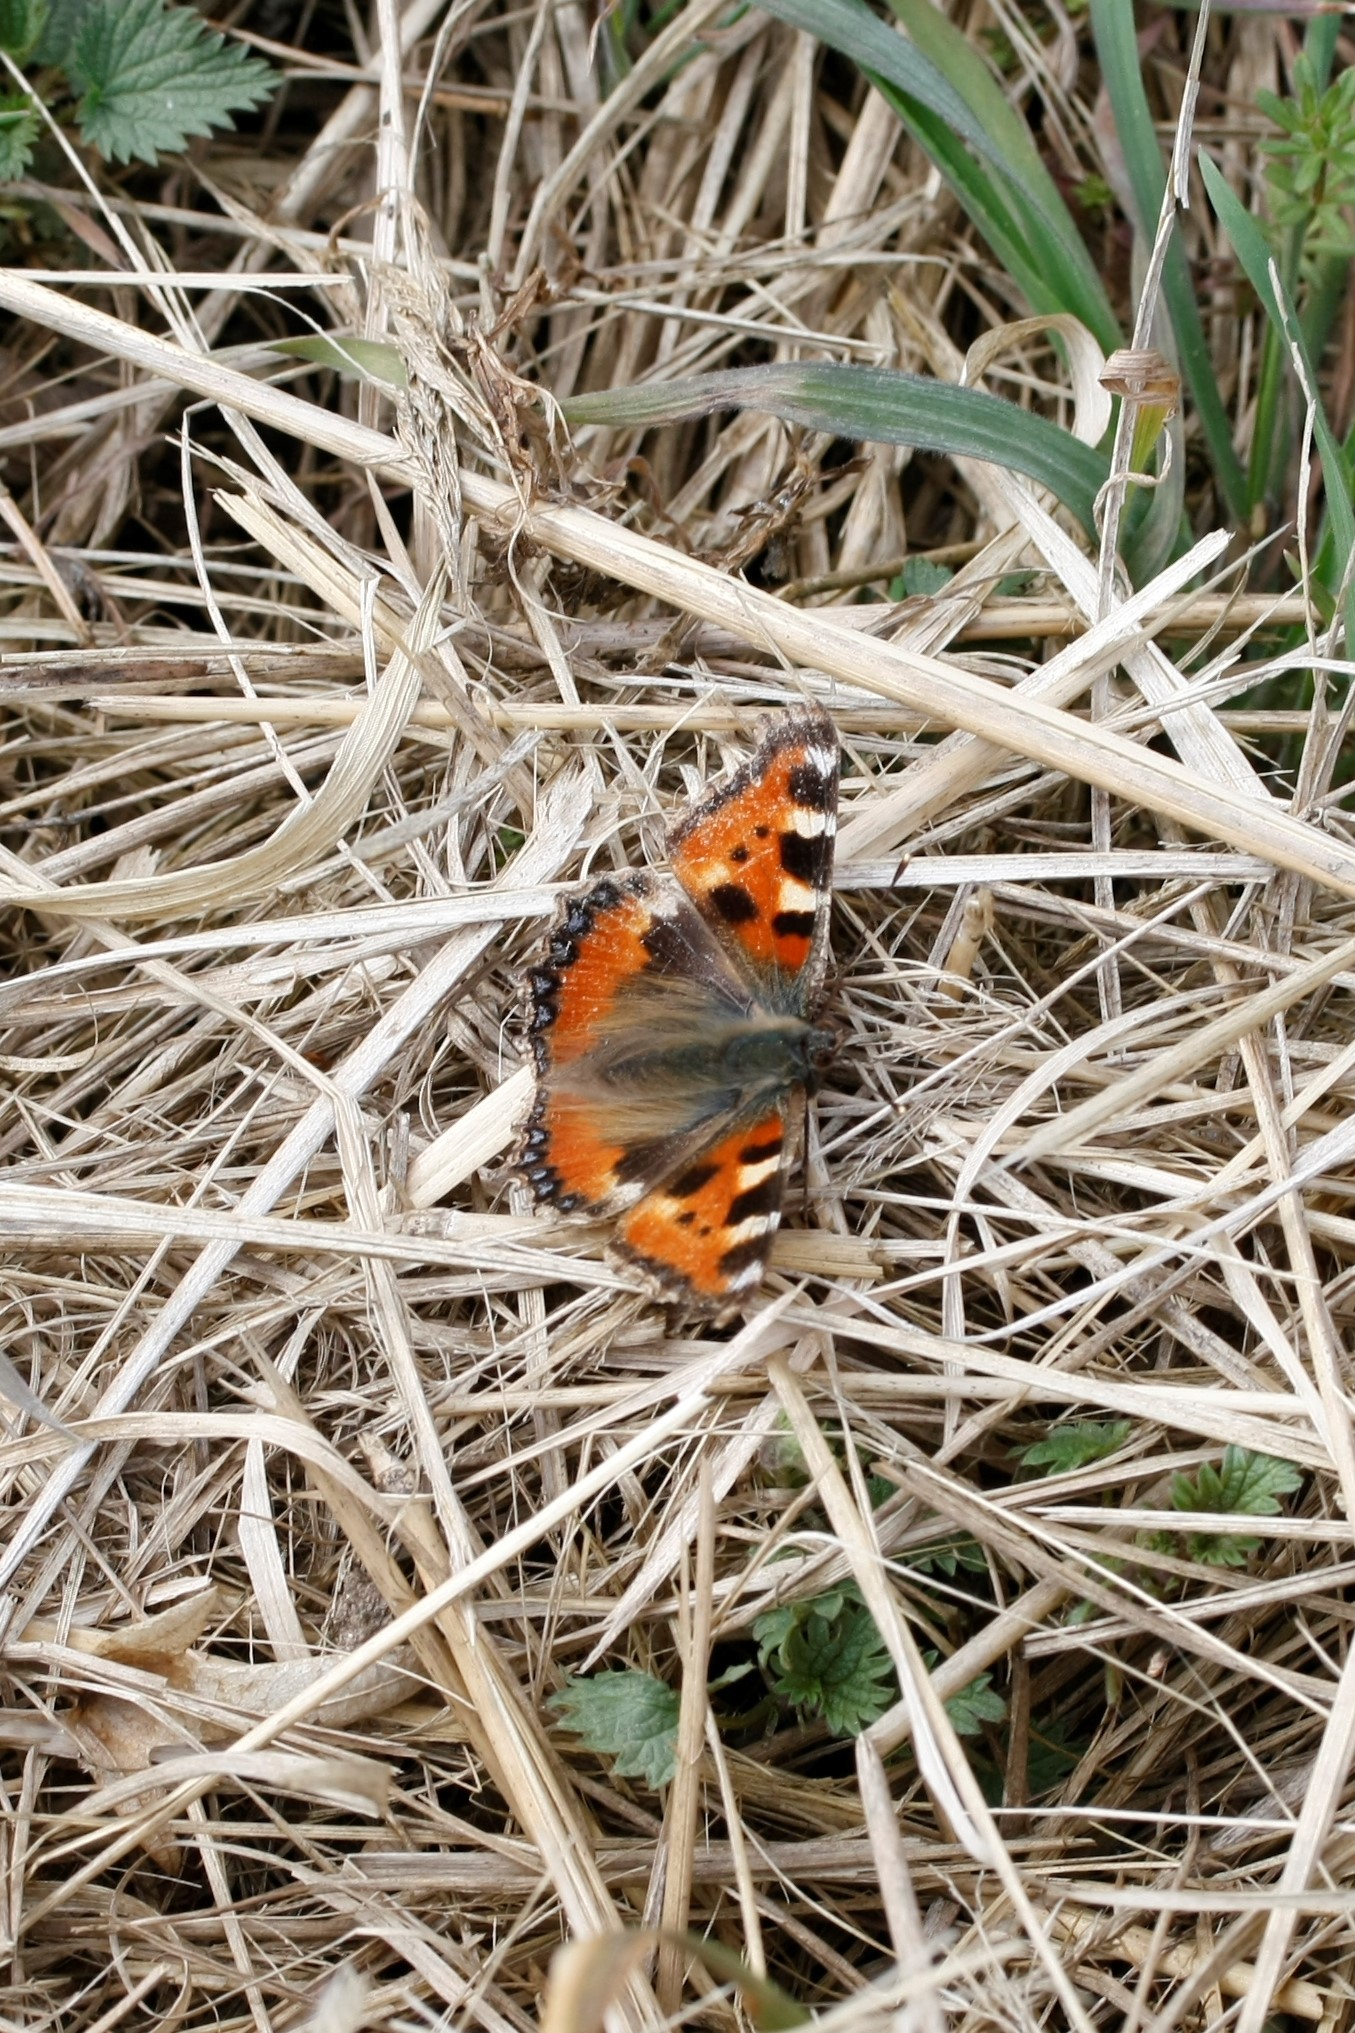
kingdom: Animalia
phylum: Arthropoda
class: Insecta
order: Lepidoptera
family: Nymphalidae
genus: Aglais
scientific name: Aglais urticae
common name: Small tortoiseshell
